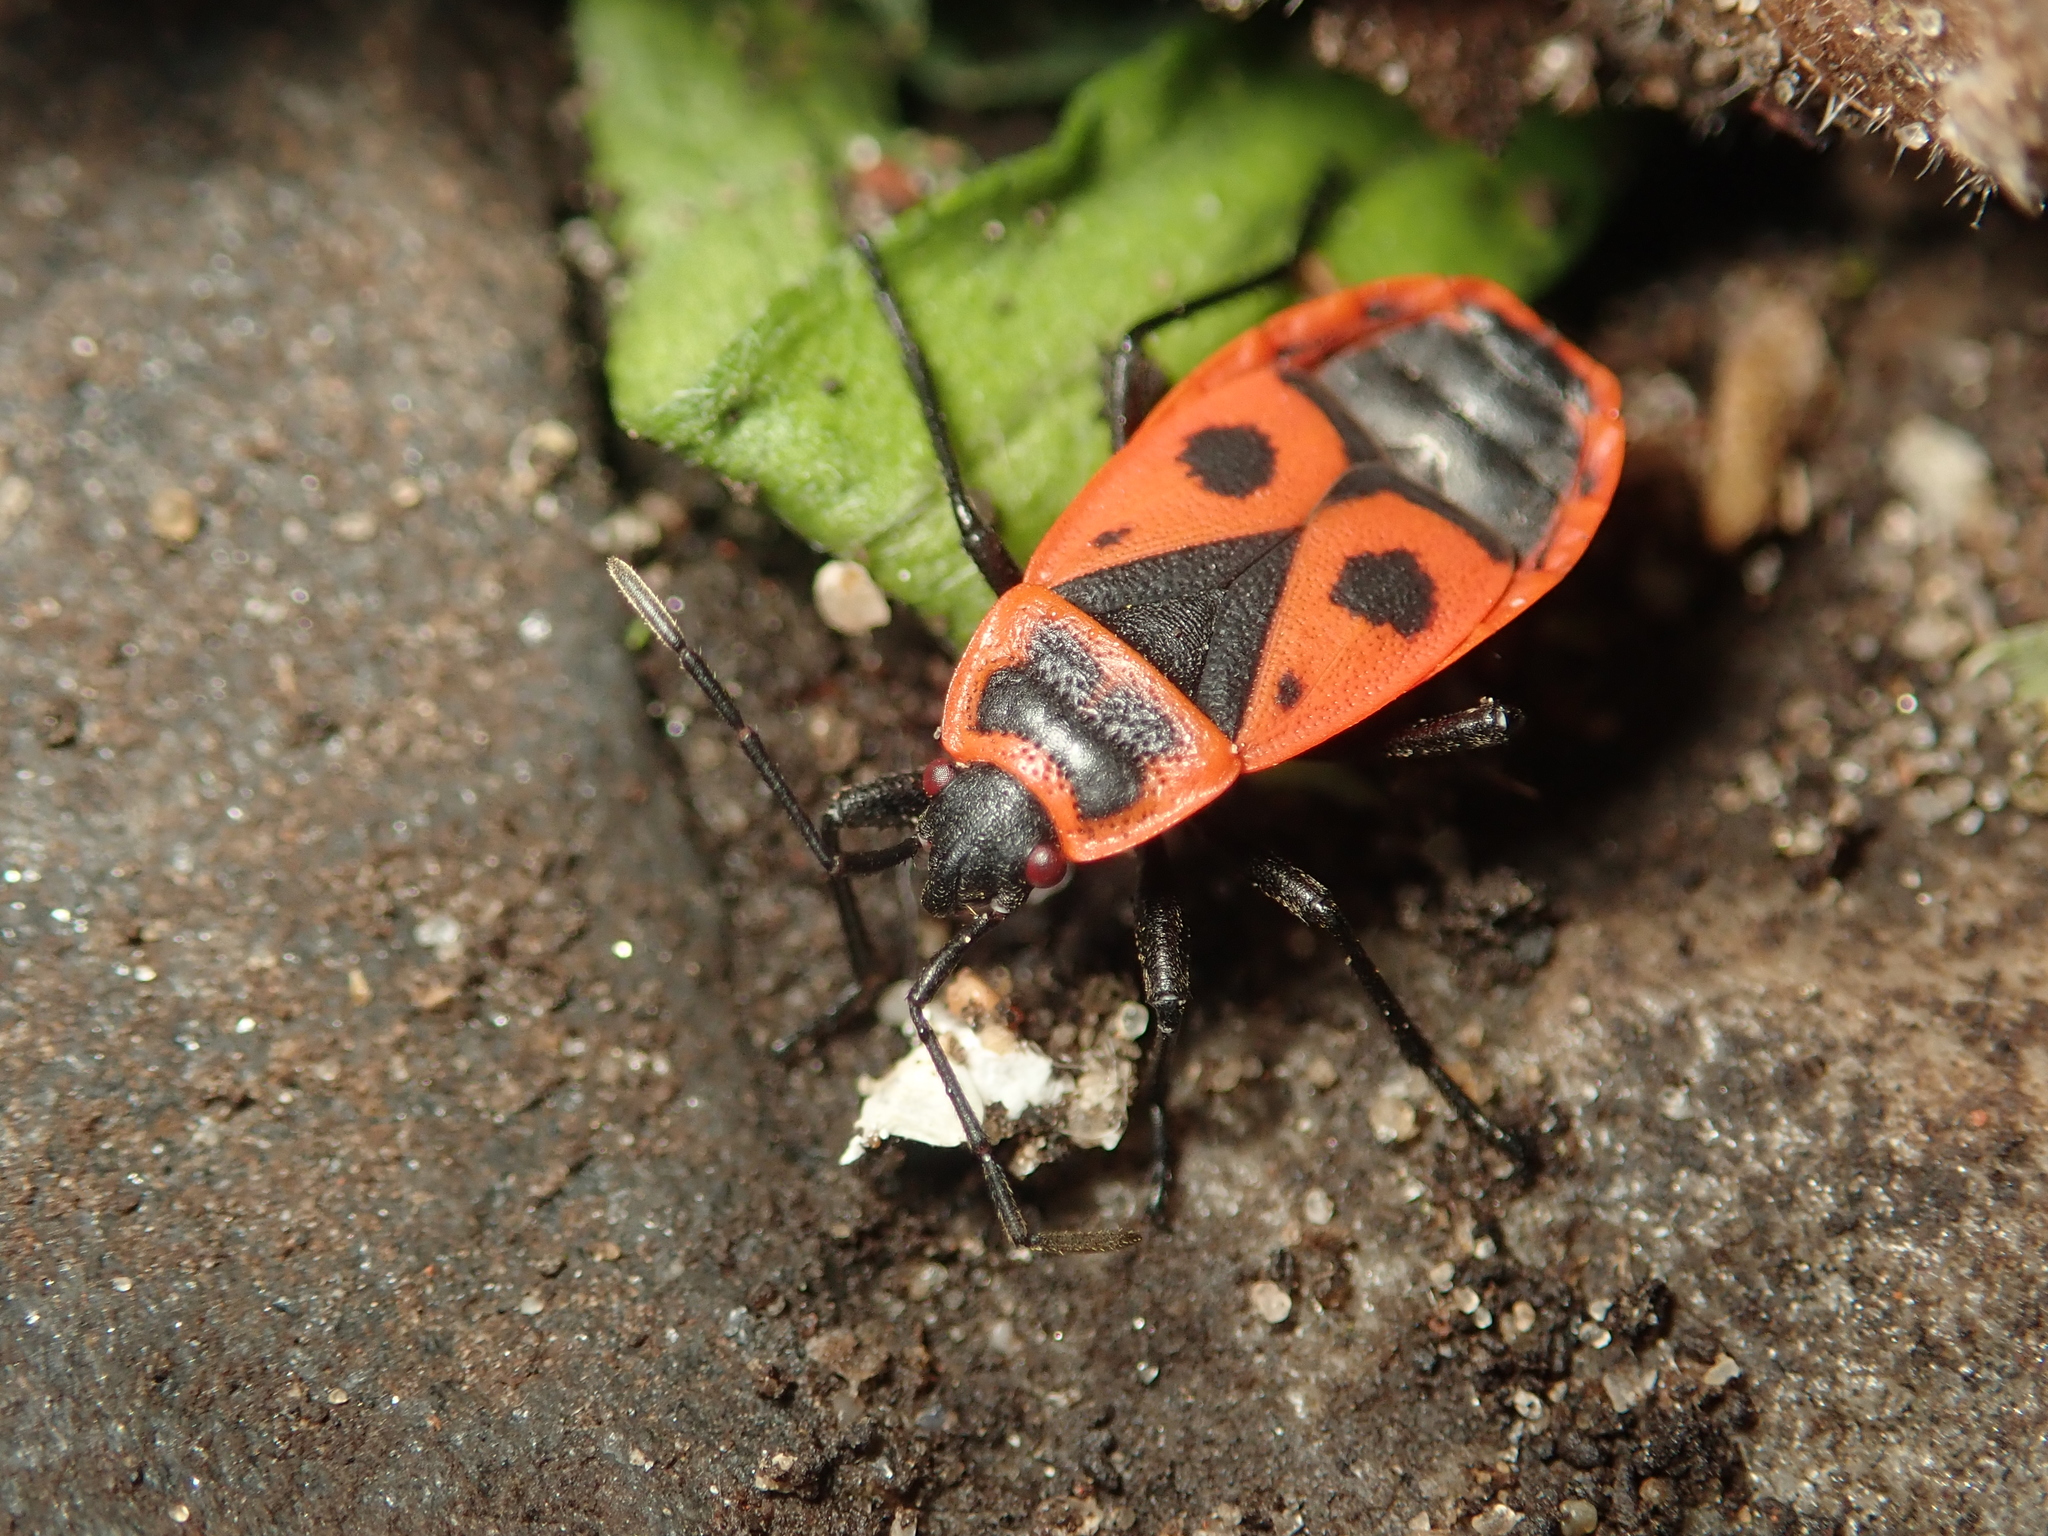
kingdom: Animalia
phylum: Arthropoda
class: Insecta
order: Hemiptera
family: Pyrrhocoridae
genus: Pyrrhocoris
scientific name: Pyrrhocoris apterus
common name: Firebug
